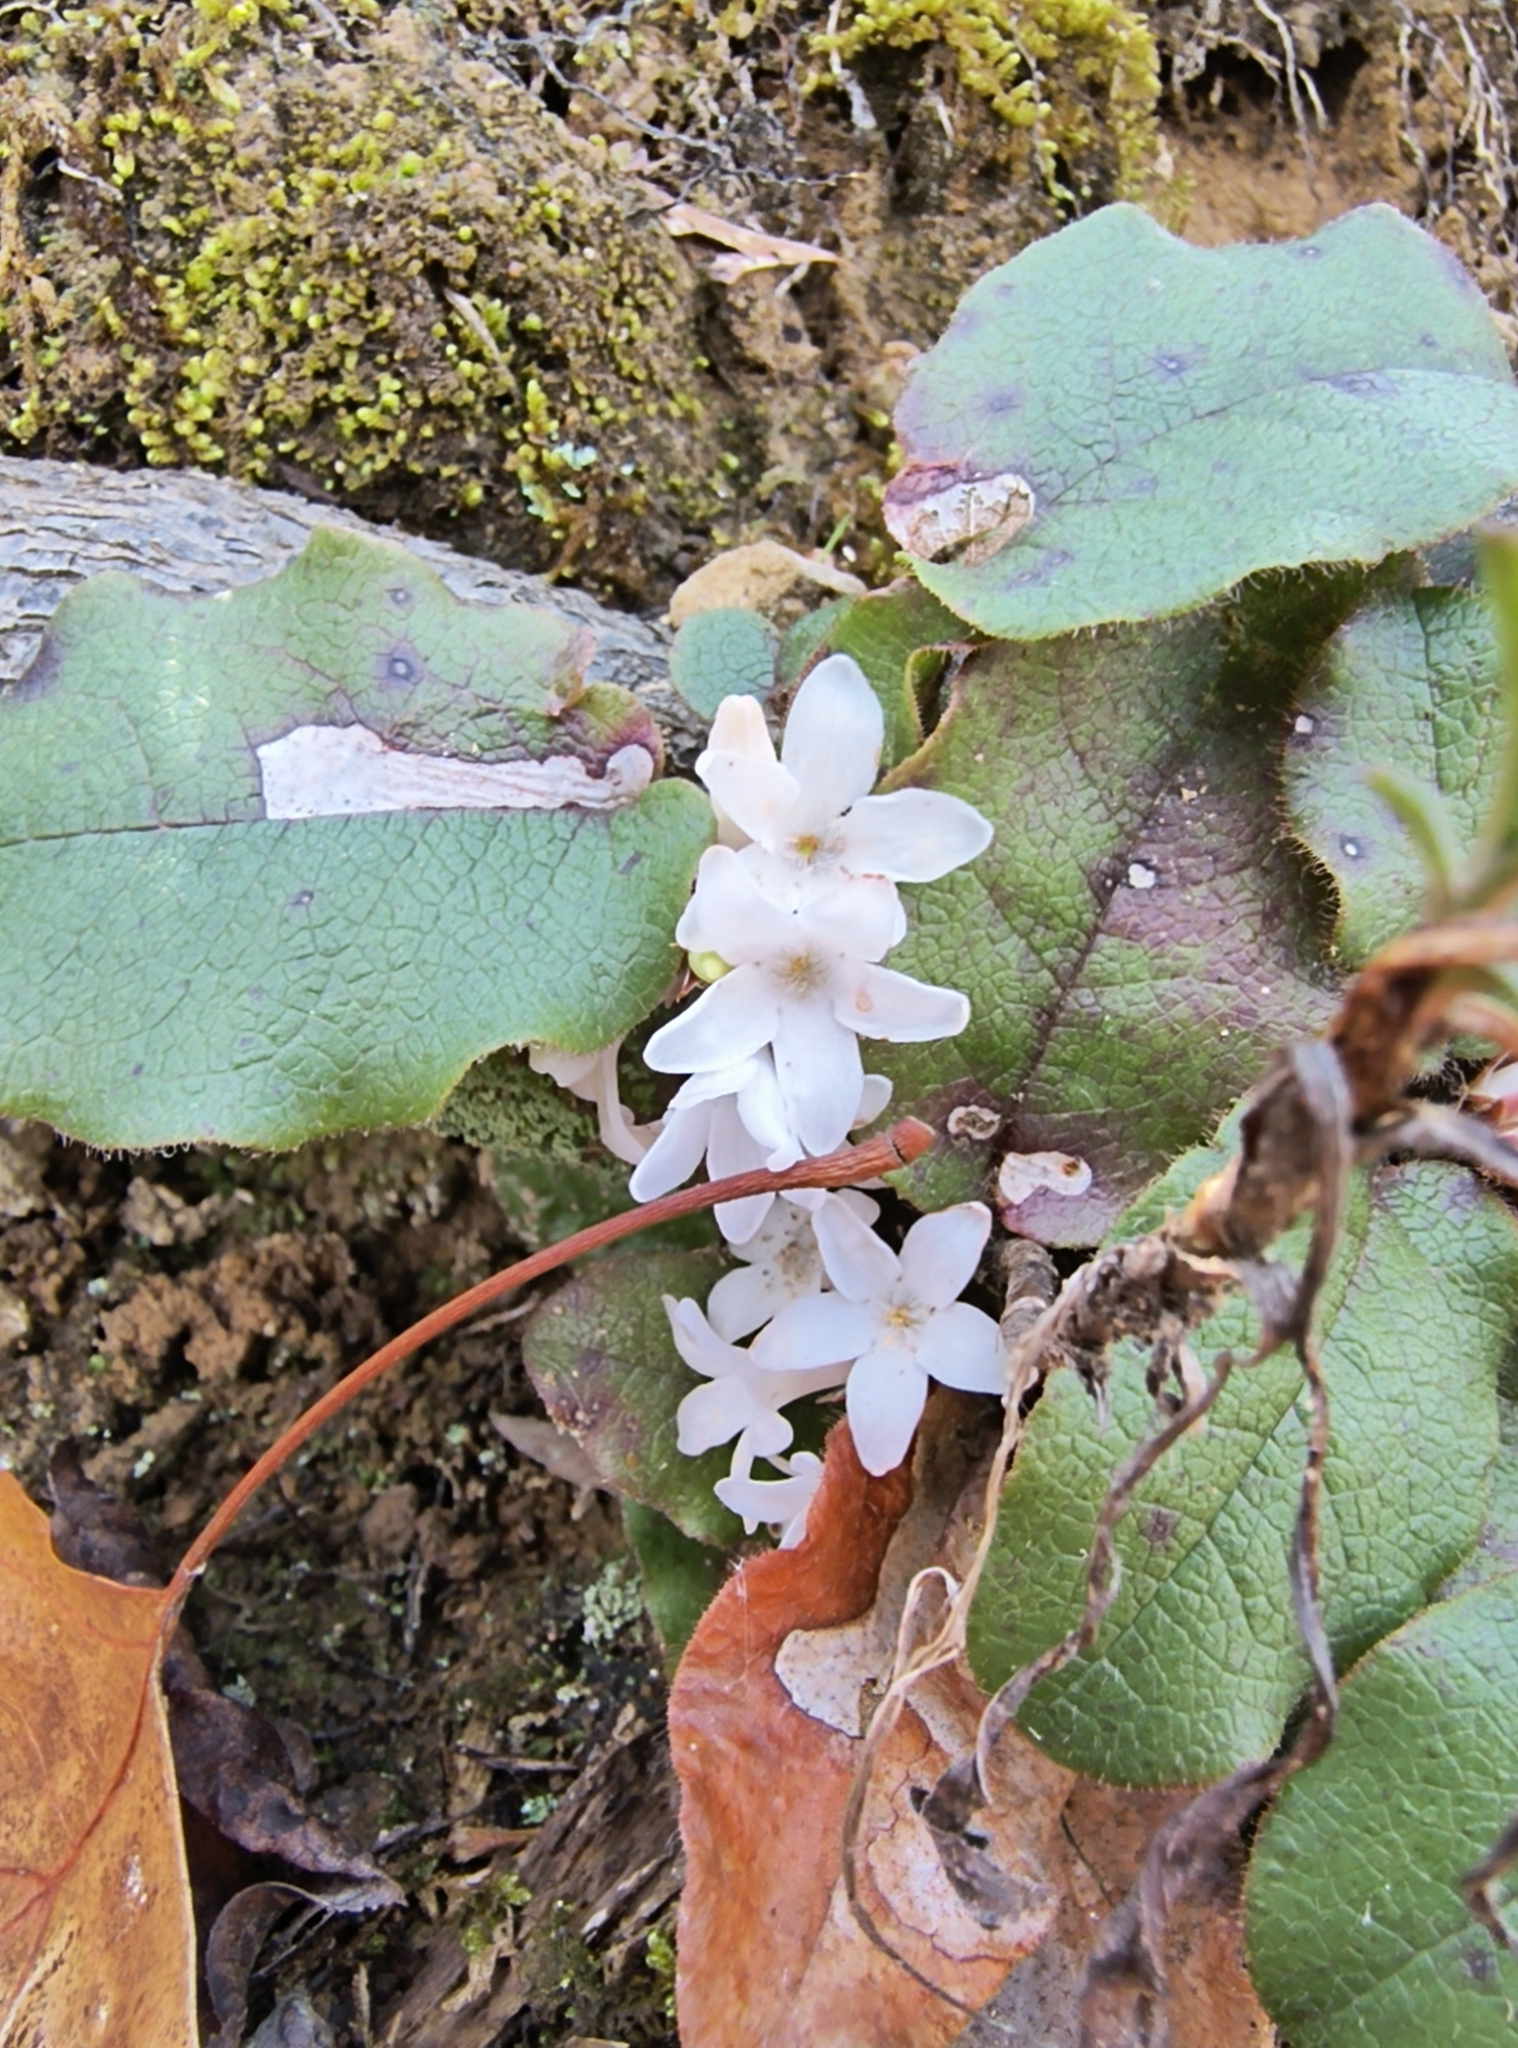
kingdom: Plantae
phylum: Tracheophyta
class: Magnoliopsida
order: Ericales
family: Ericaceae
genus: Epigaea
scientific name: Epigaea repens
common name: Gravelroot
